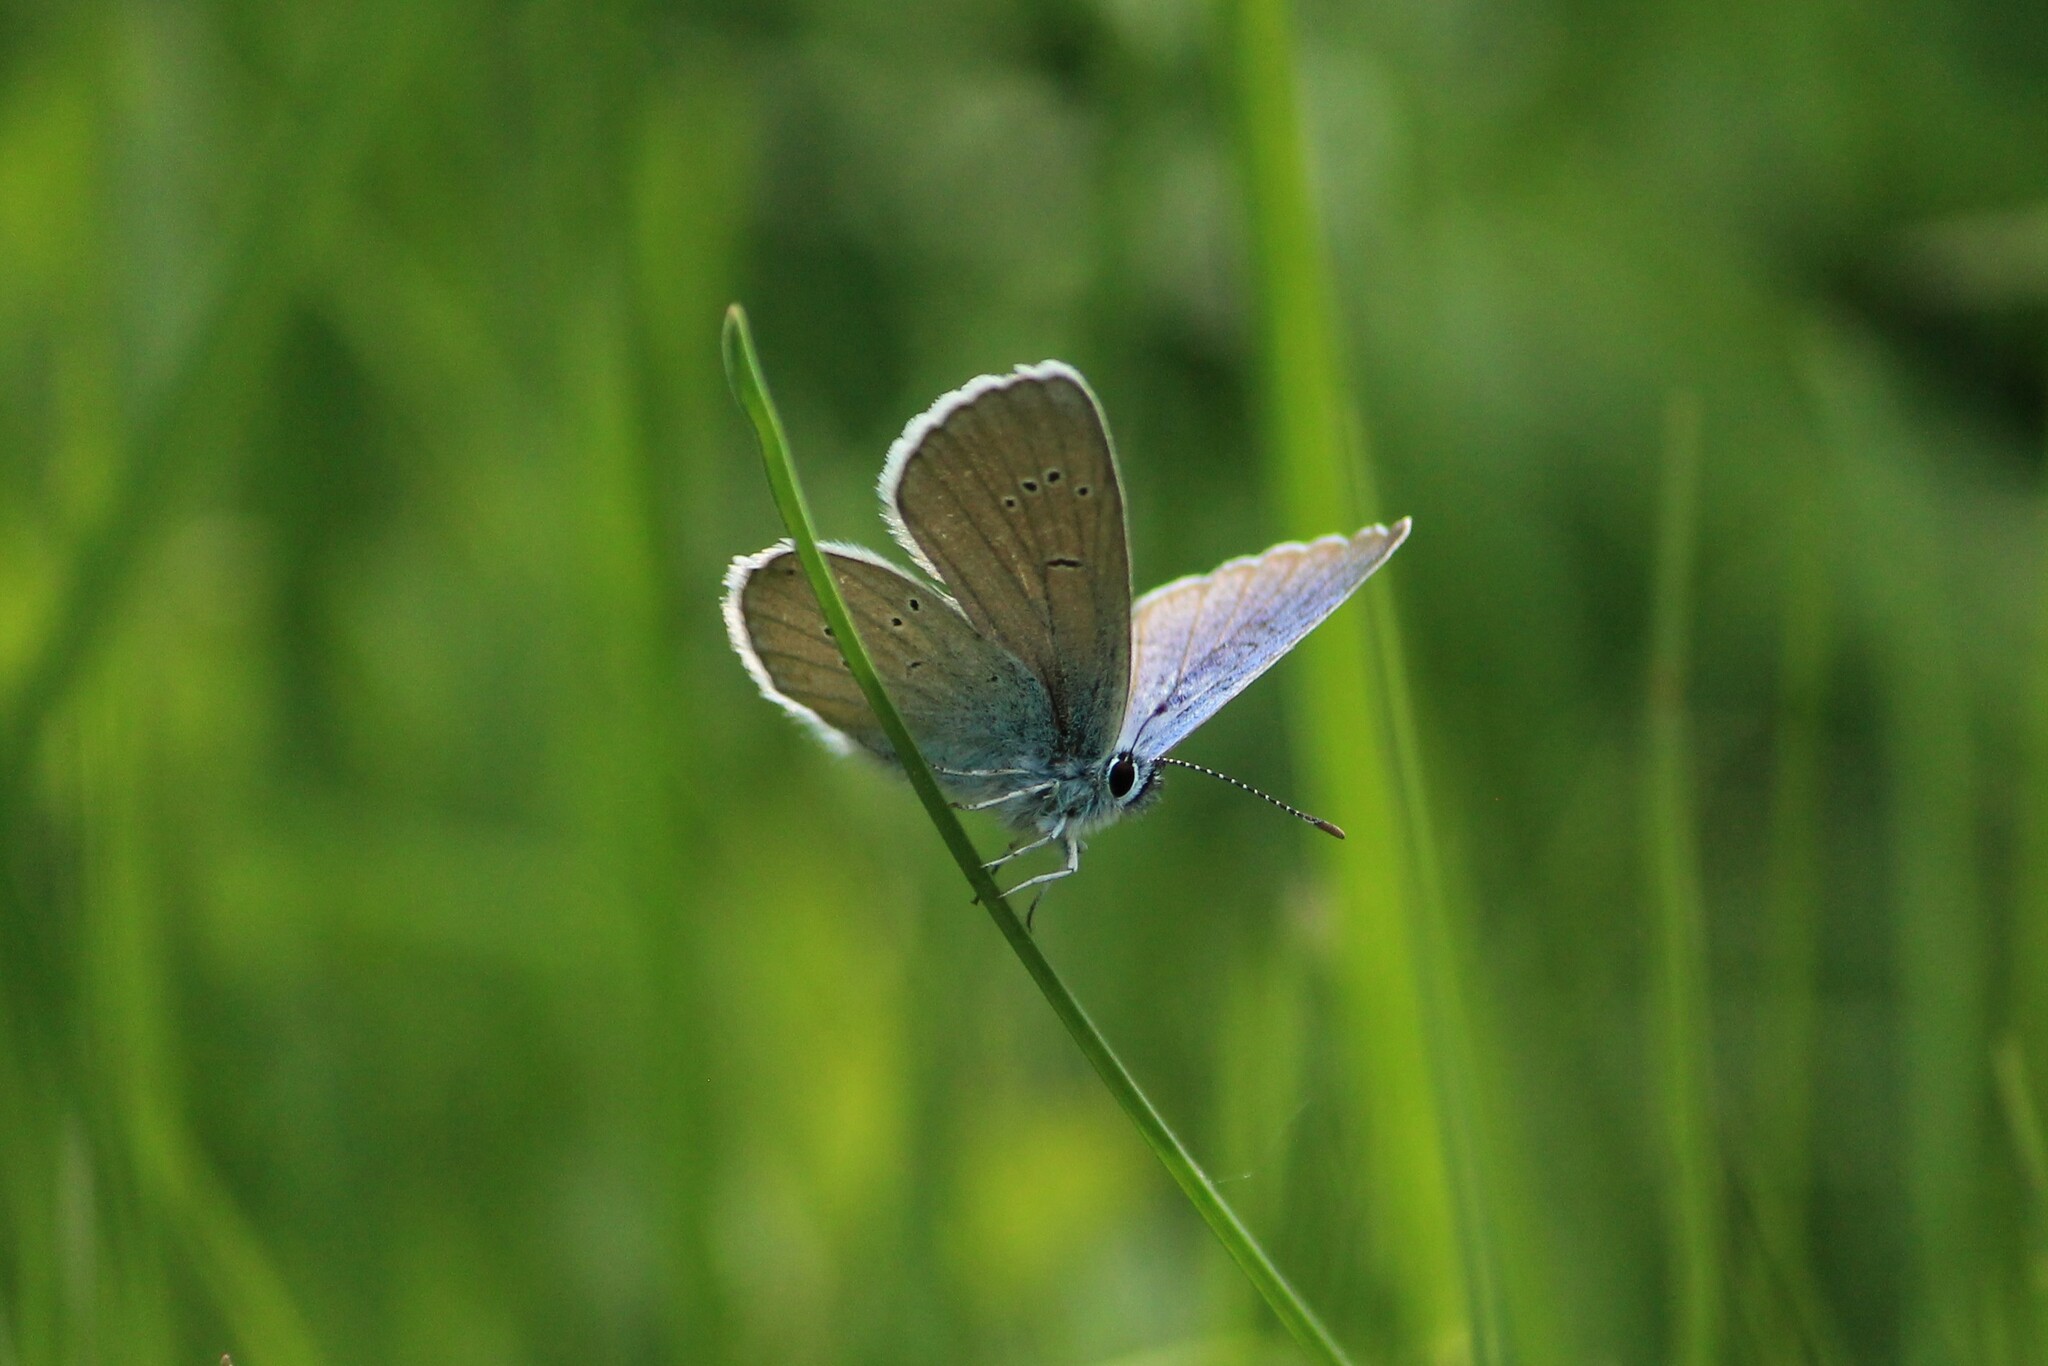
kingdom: Animalia
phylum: Arthropoda
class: Insecta
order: Lepidoptera
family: Lycaenidae
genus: Cyaniris
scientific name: Cyaniris semiargus
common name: Mazarine blue
